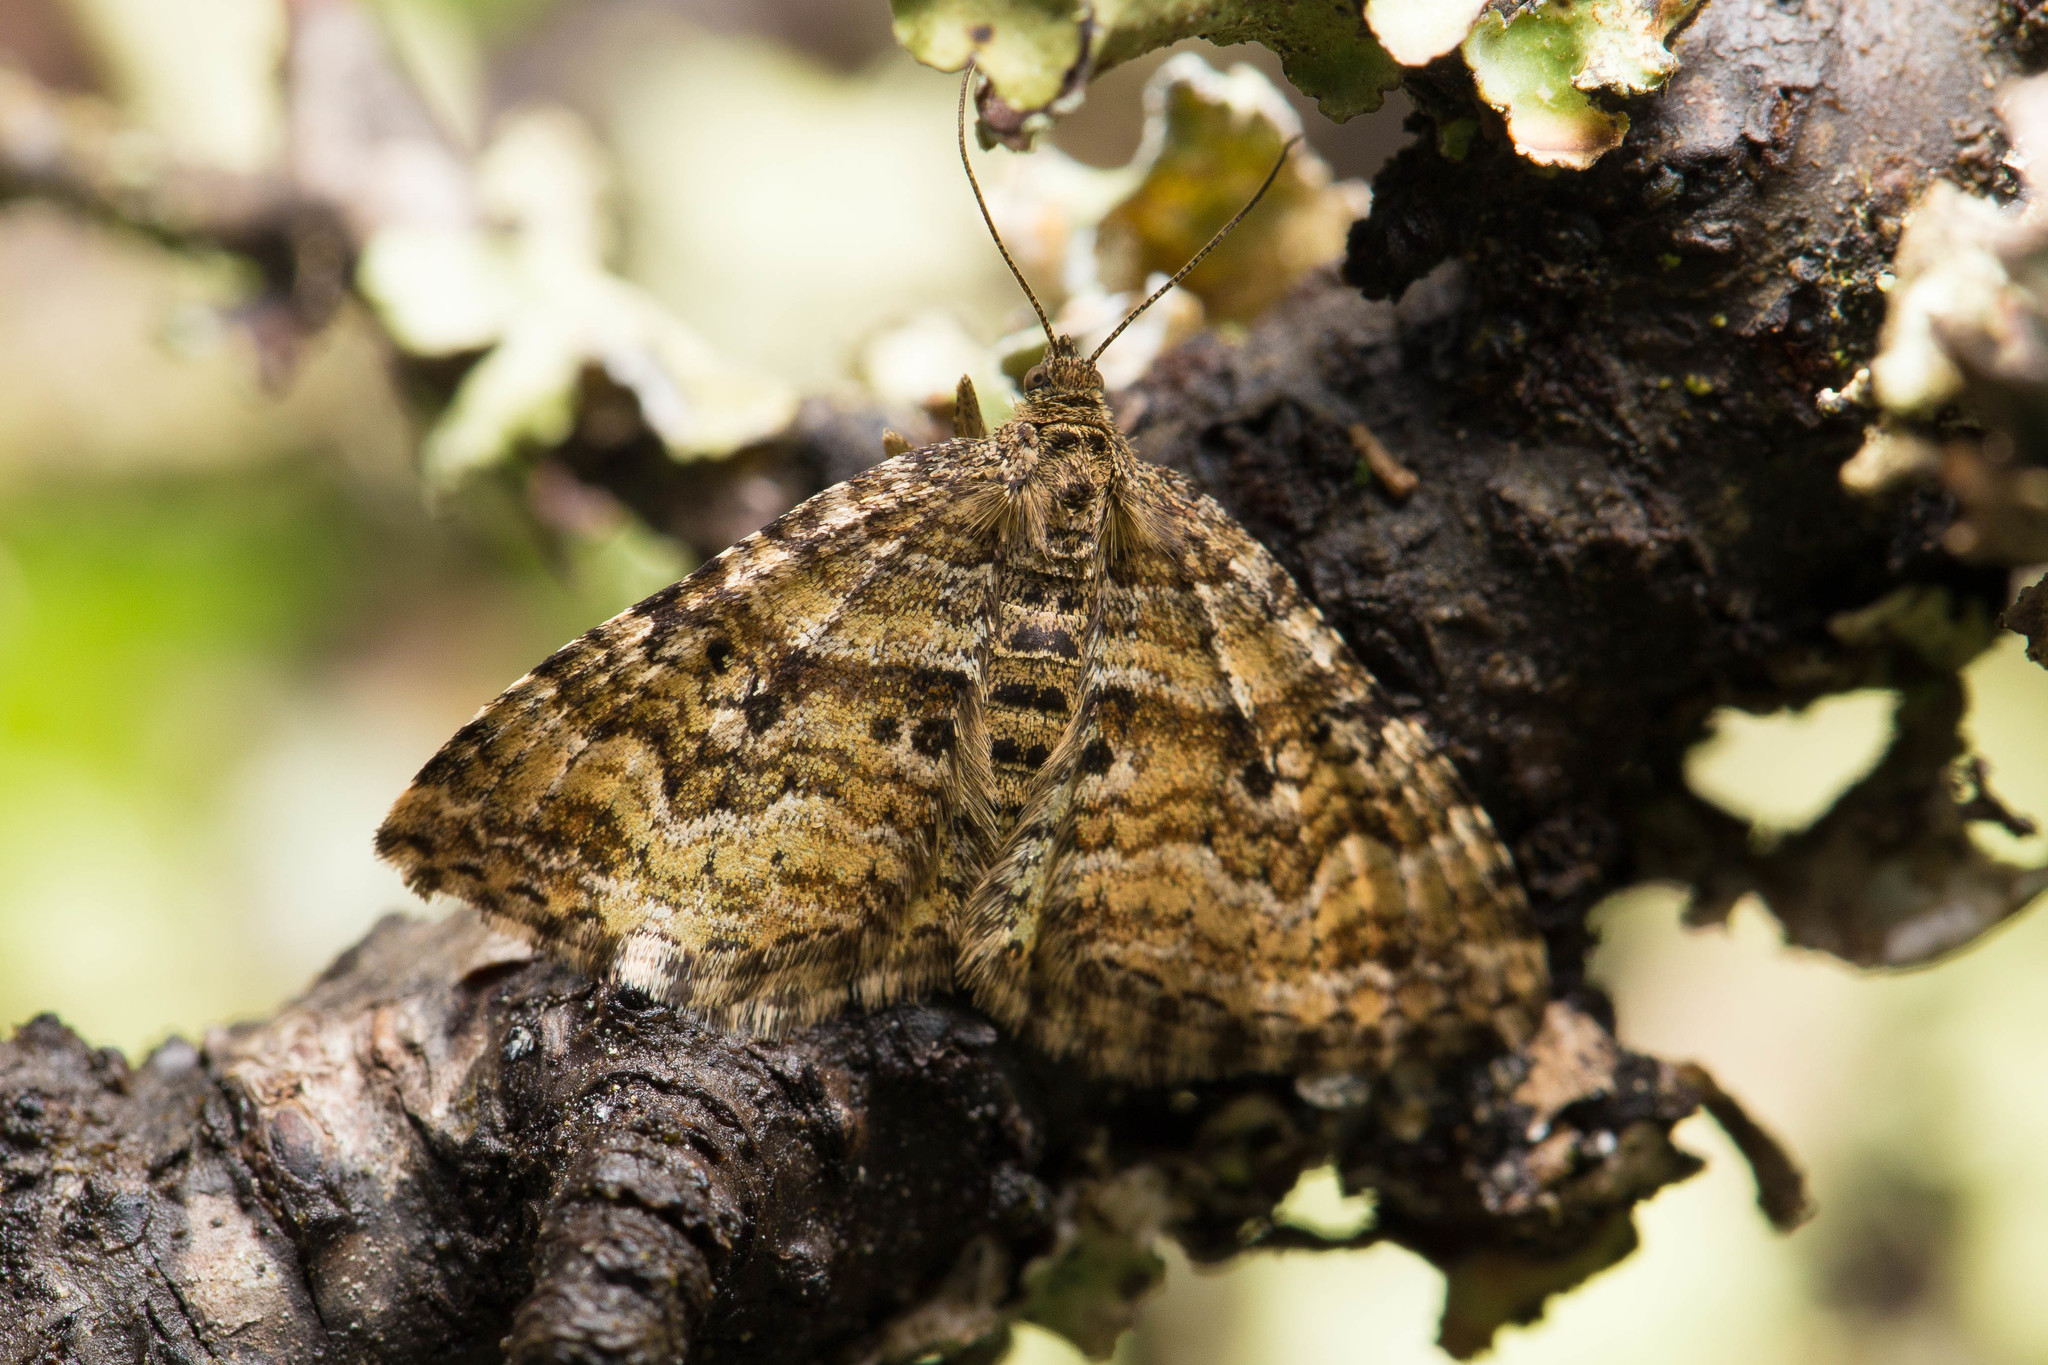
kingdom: Animalia
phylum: Arthropoda
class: Insecta
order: Lepidoptera
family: Geometridae
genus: Epirrhoe
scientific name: Epirrhoe plebeculata
